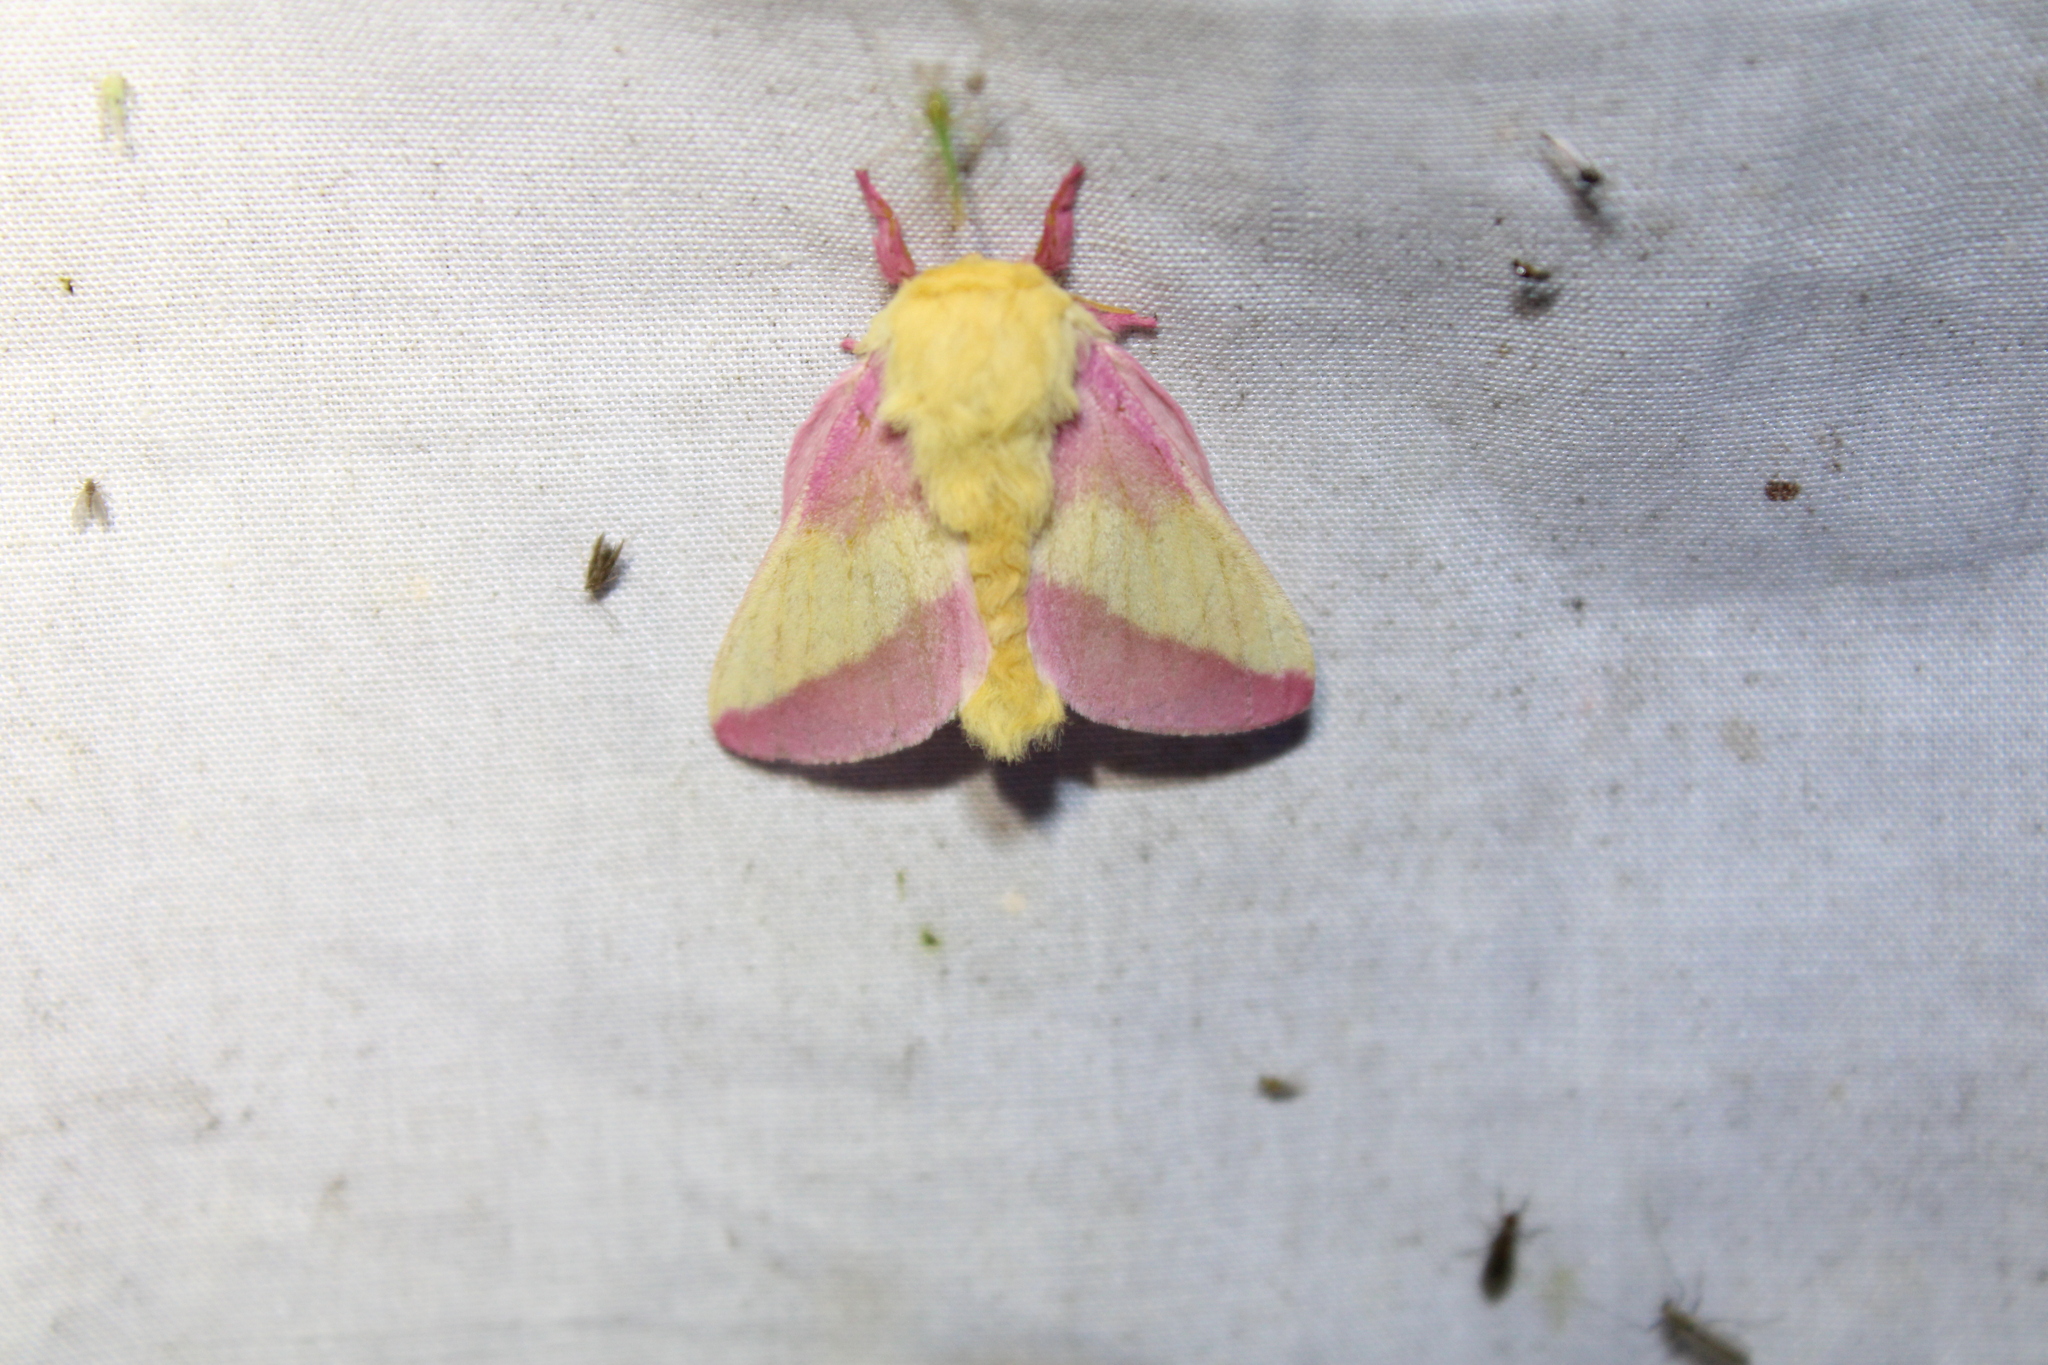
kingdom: Animalia
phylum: Arthropoda
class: Insecta
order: Lepidoptera
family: Saturniidae
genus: Dryocampa
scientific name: Dryocampa rubicunda
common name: Rosy maple moth
